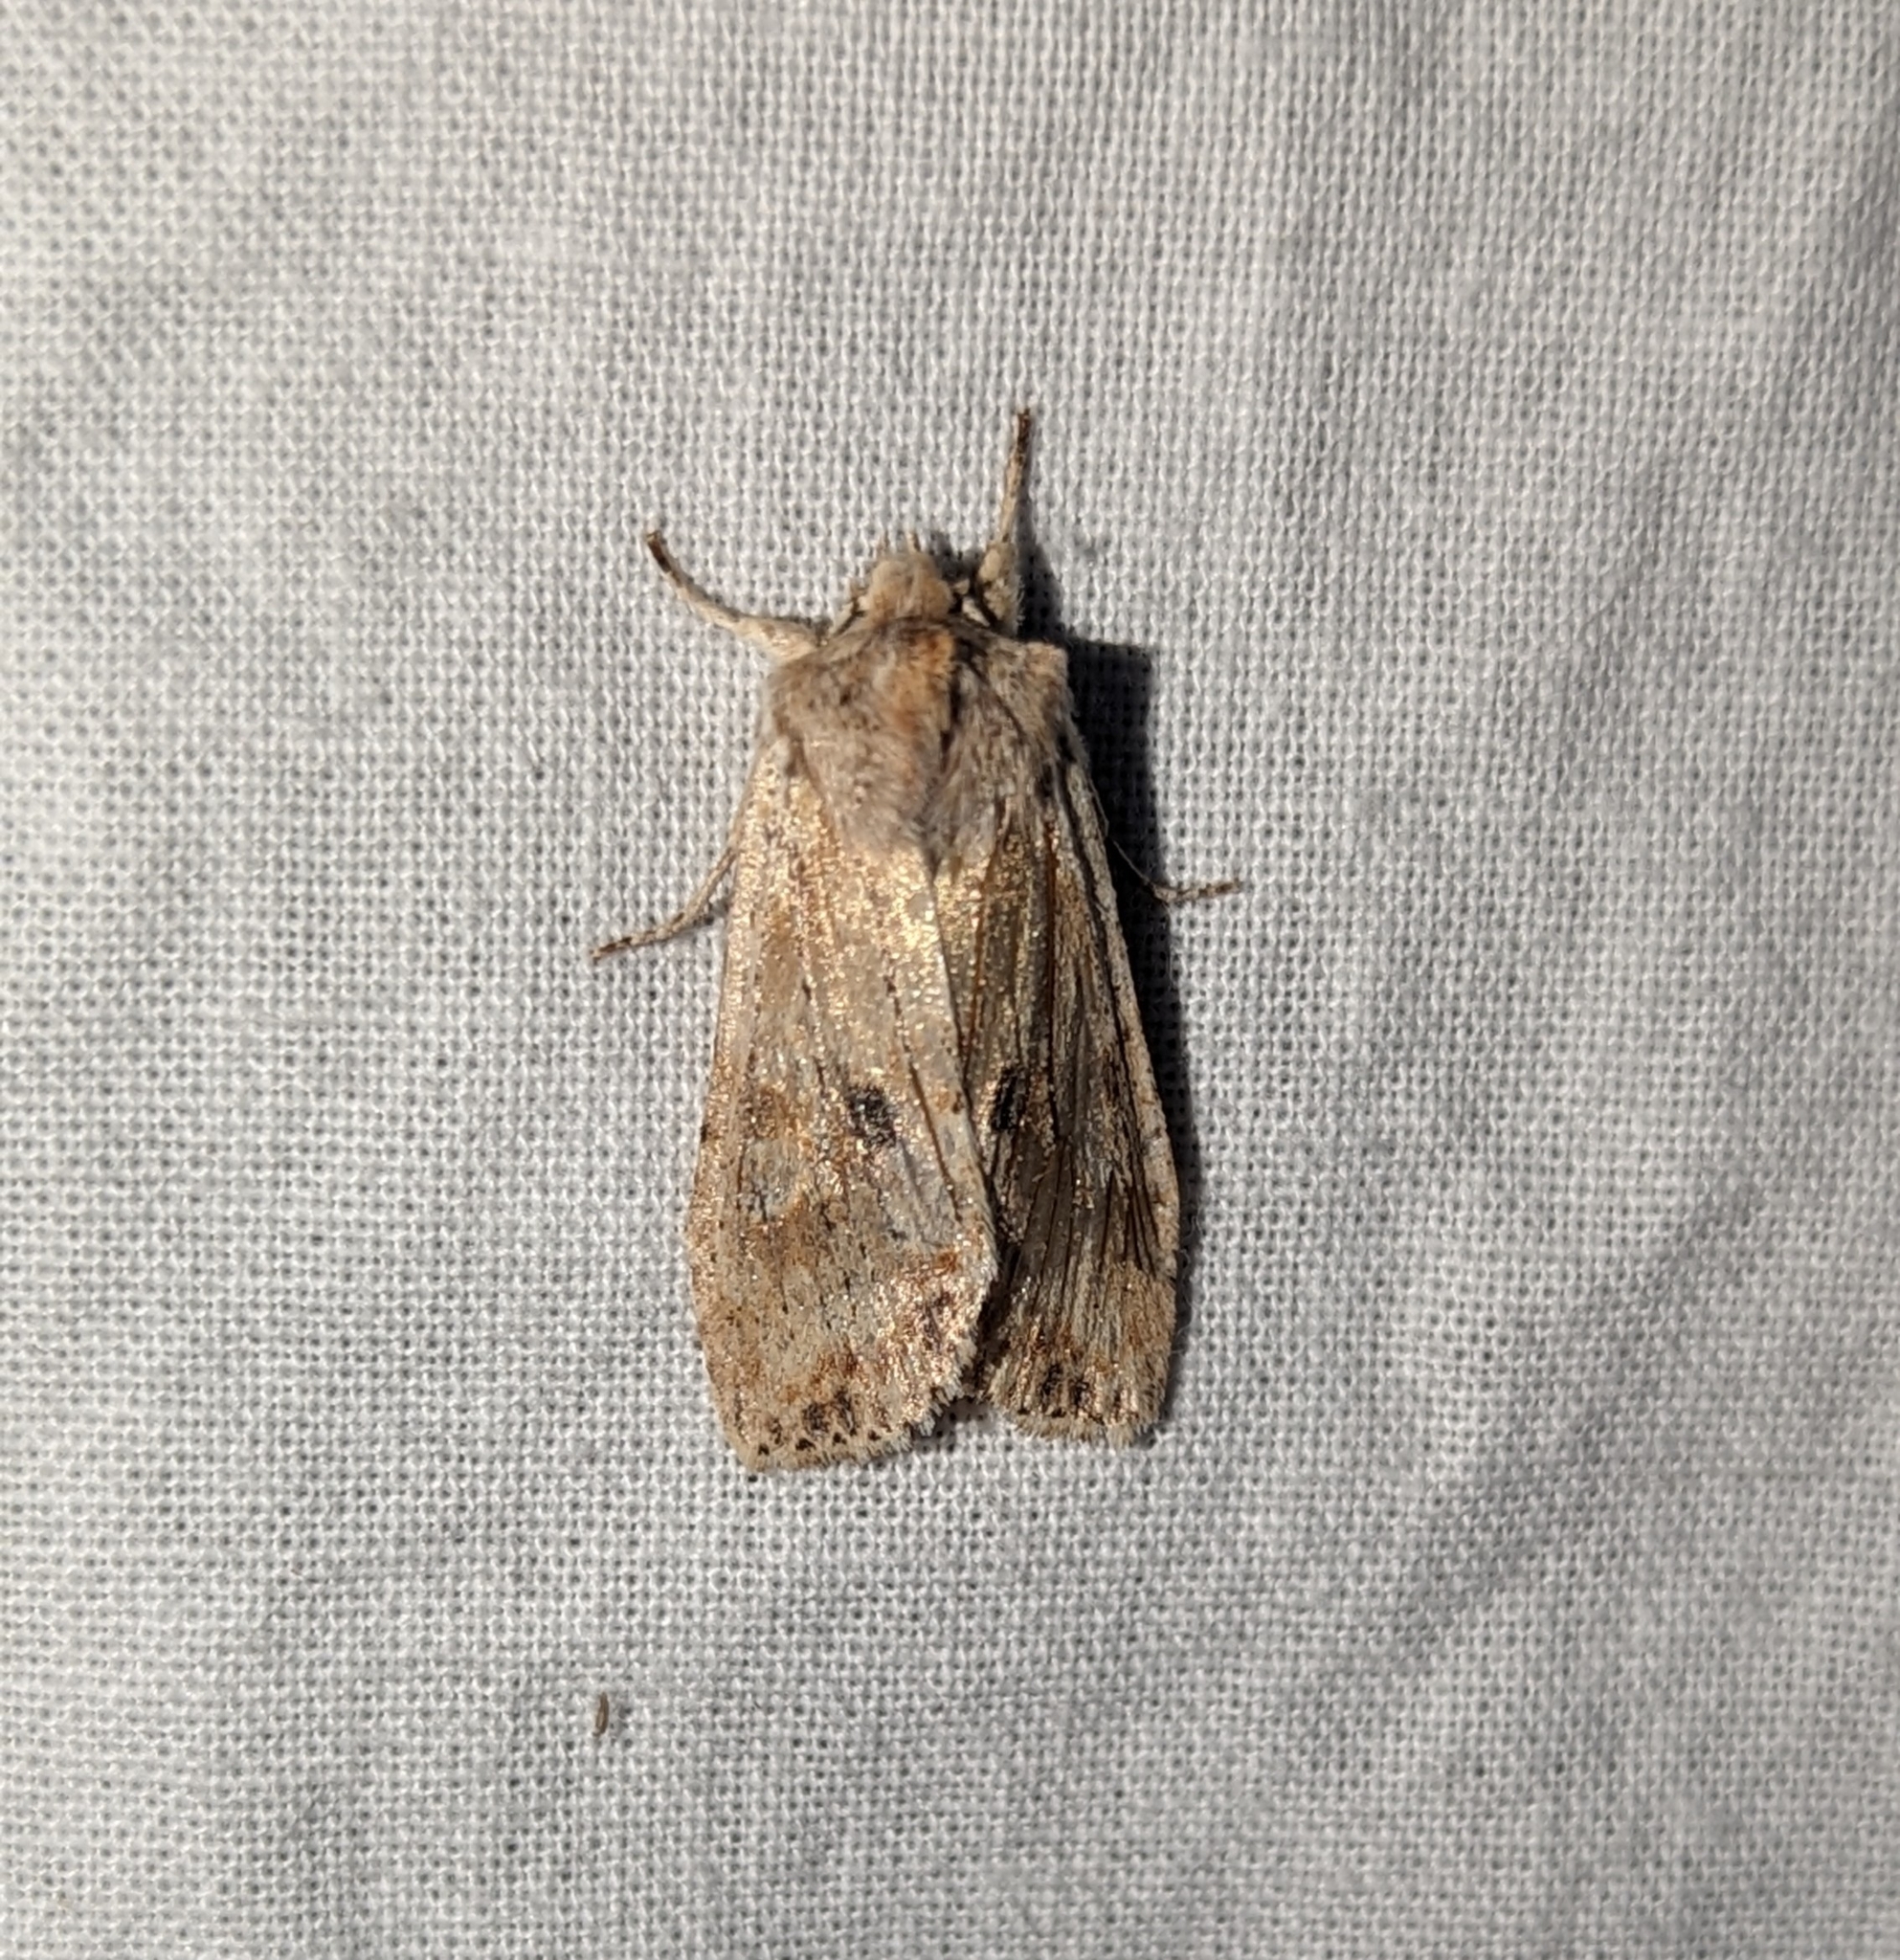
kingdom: Animalia
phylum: Arthropoda
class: Insecta
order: Lepidoptera
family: Noctuidae
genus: Lithophane
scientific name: Lithophane innominata
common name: Nameless pinion moth
